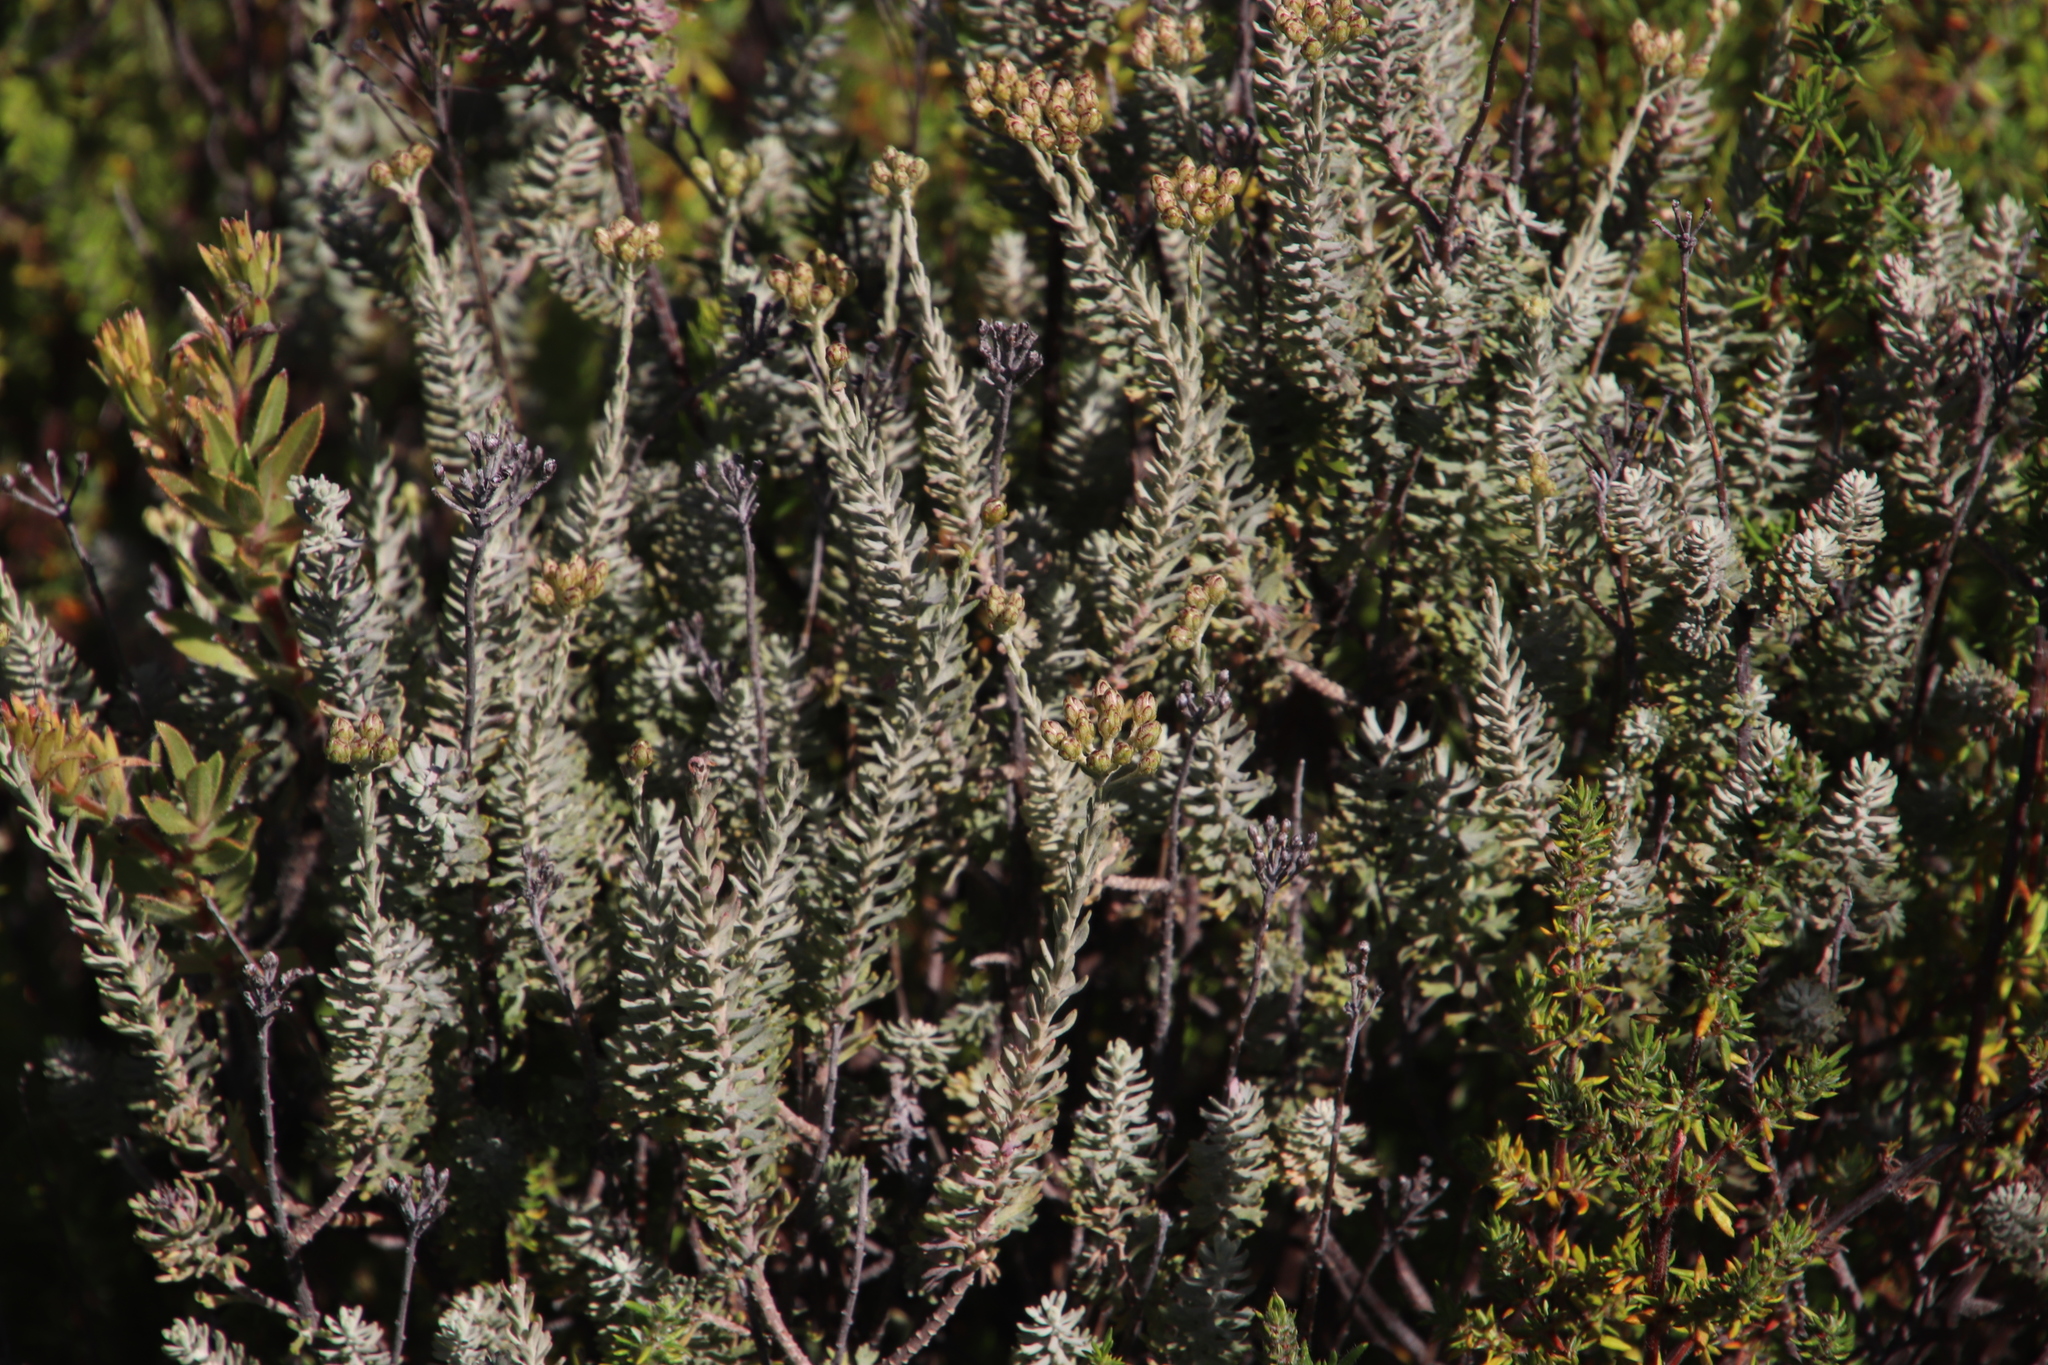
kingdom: Plantae
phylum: Tracheophyta
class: Magnoliopsida
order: Asterales
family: Asteraceae
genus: Athanasia
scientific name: Athanasia trifurcata
